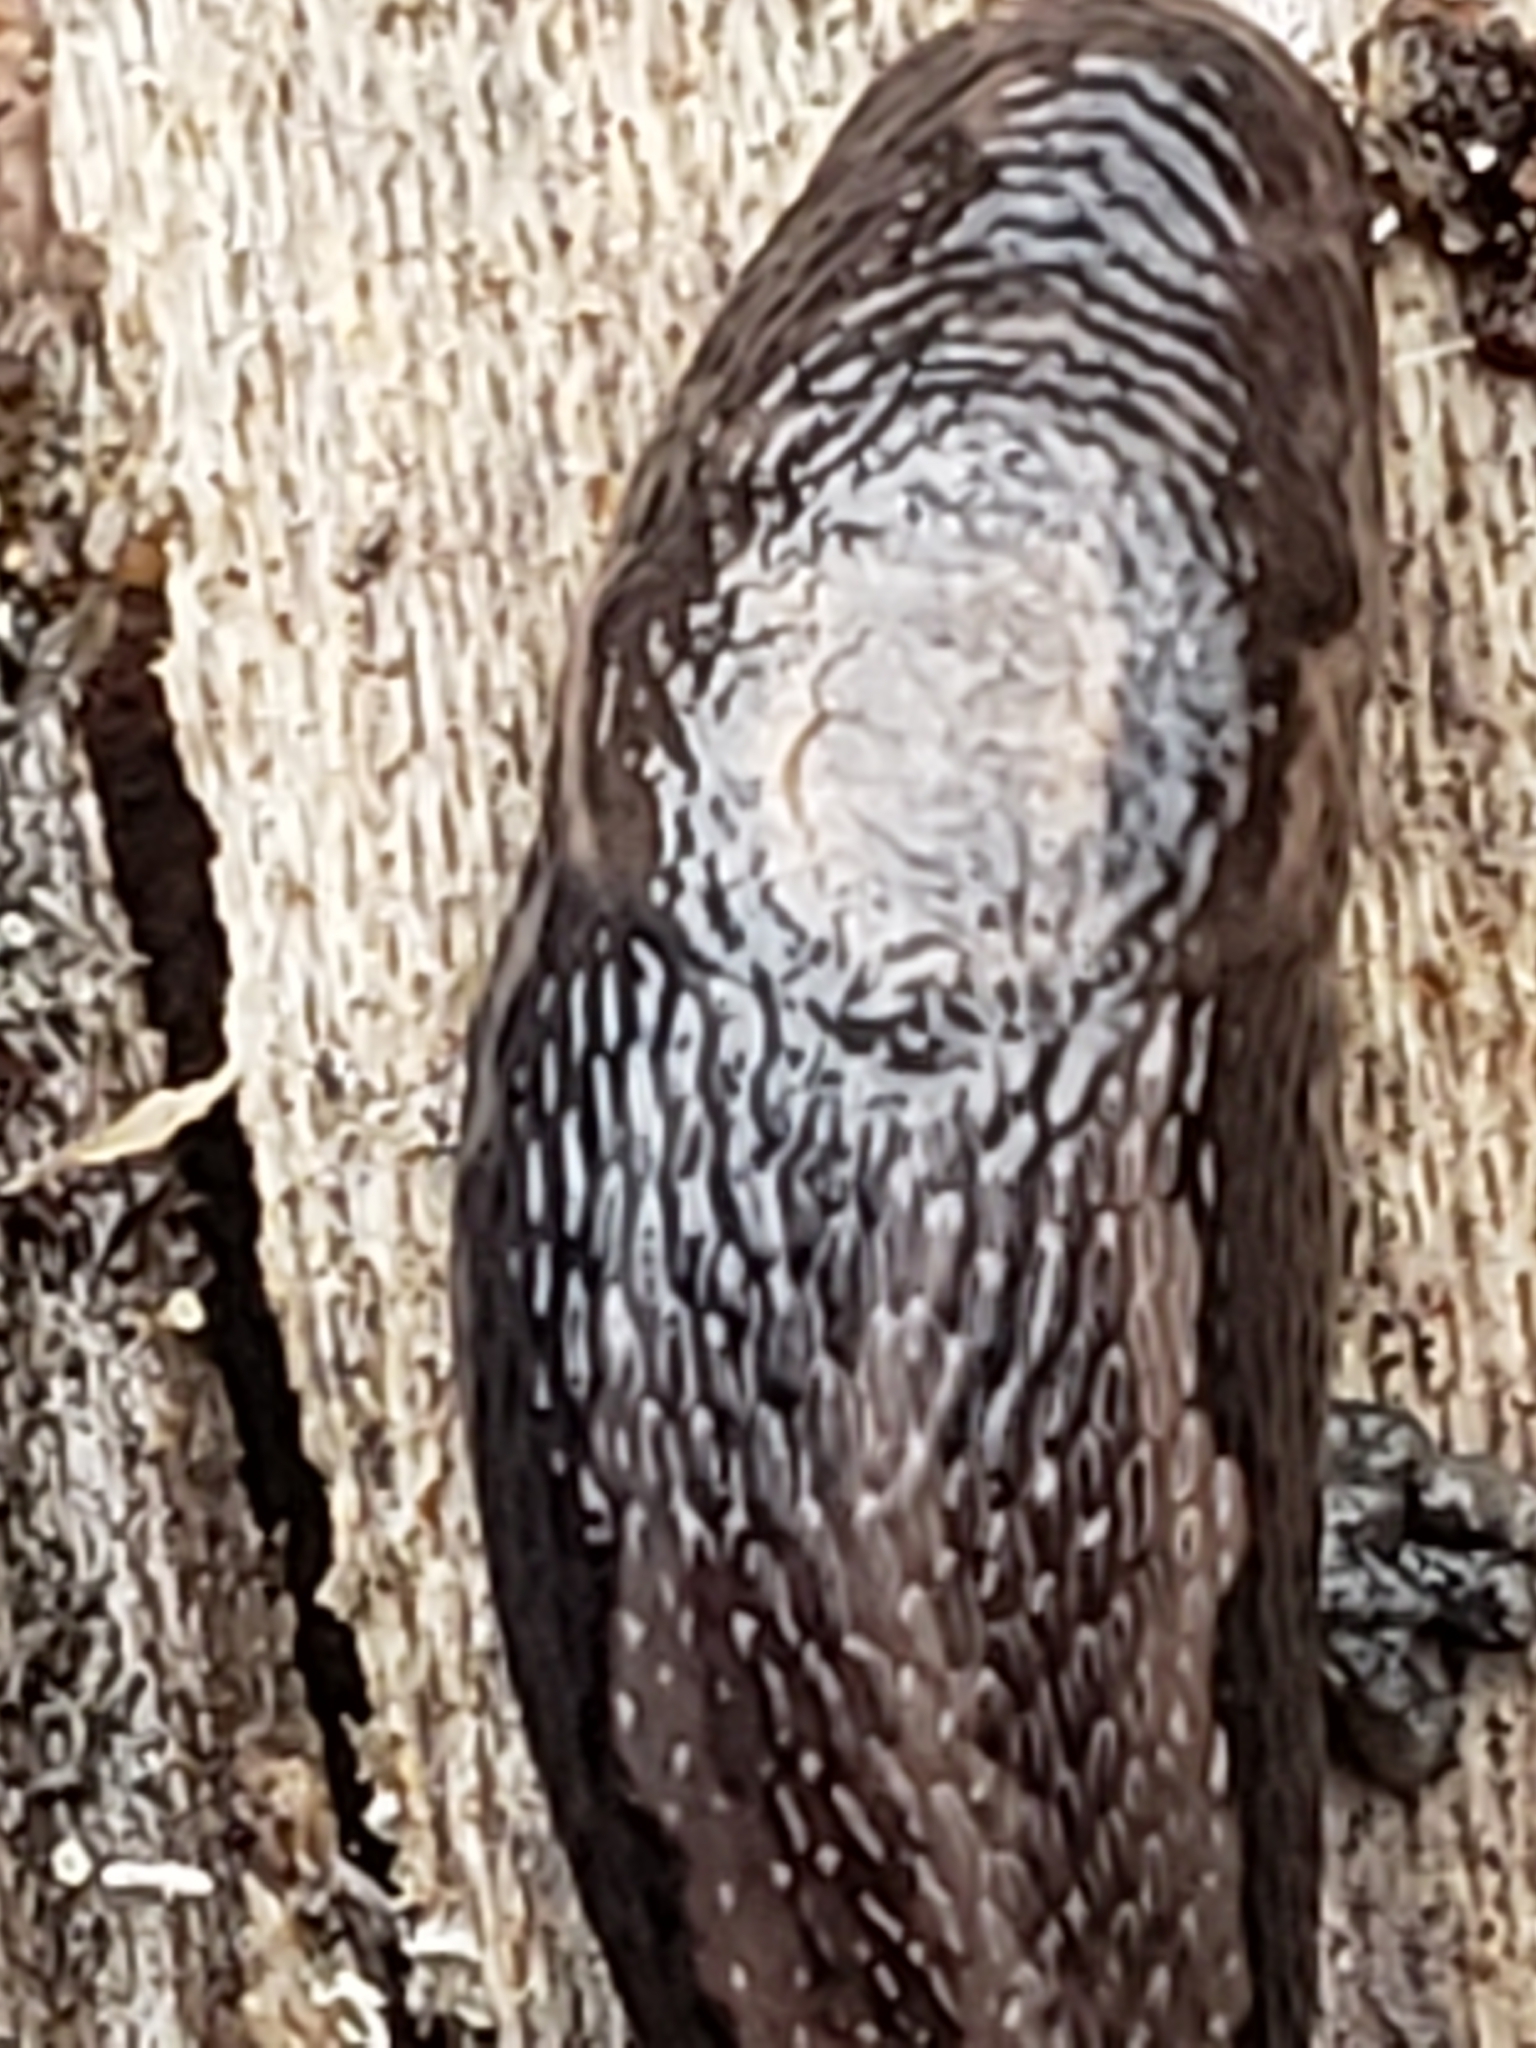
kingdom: Animalia
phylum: Mollusca
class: Gastropoda
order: Stylommatophora
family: Limacidae
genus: Limax
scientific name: Limax maximus
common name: Great grey slug
